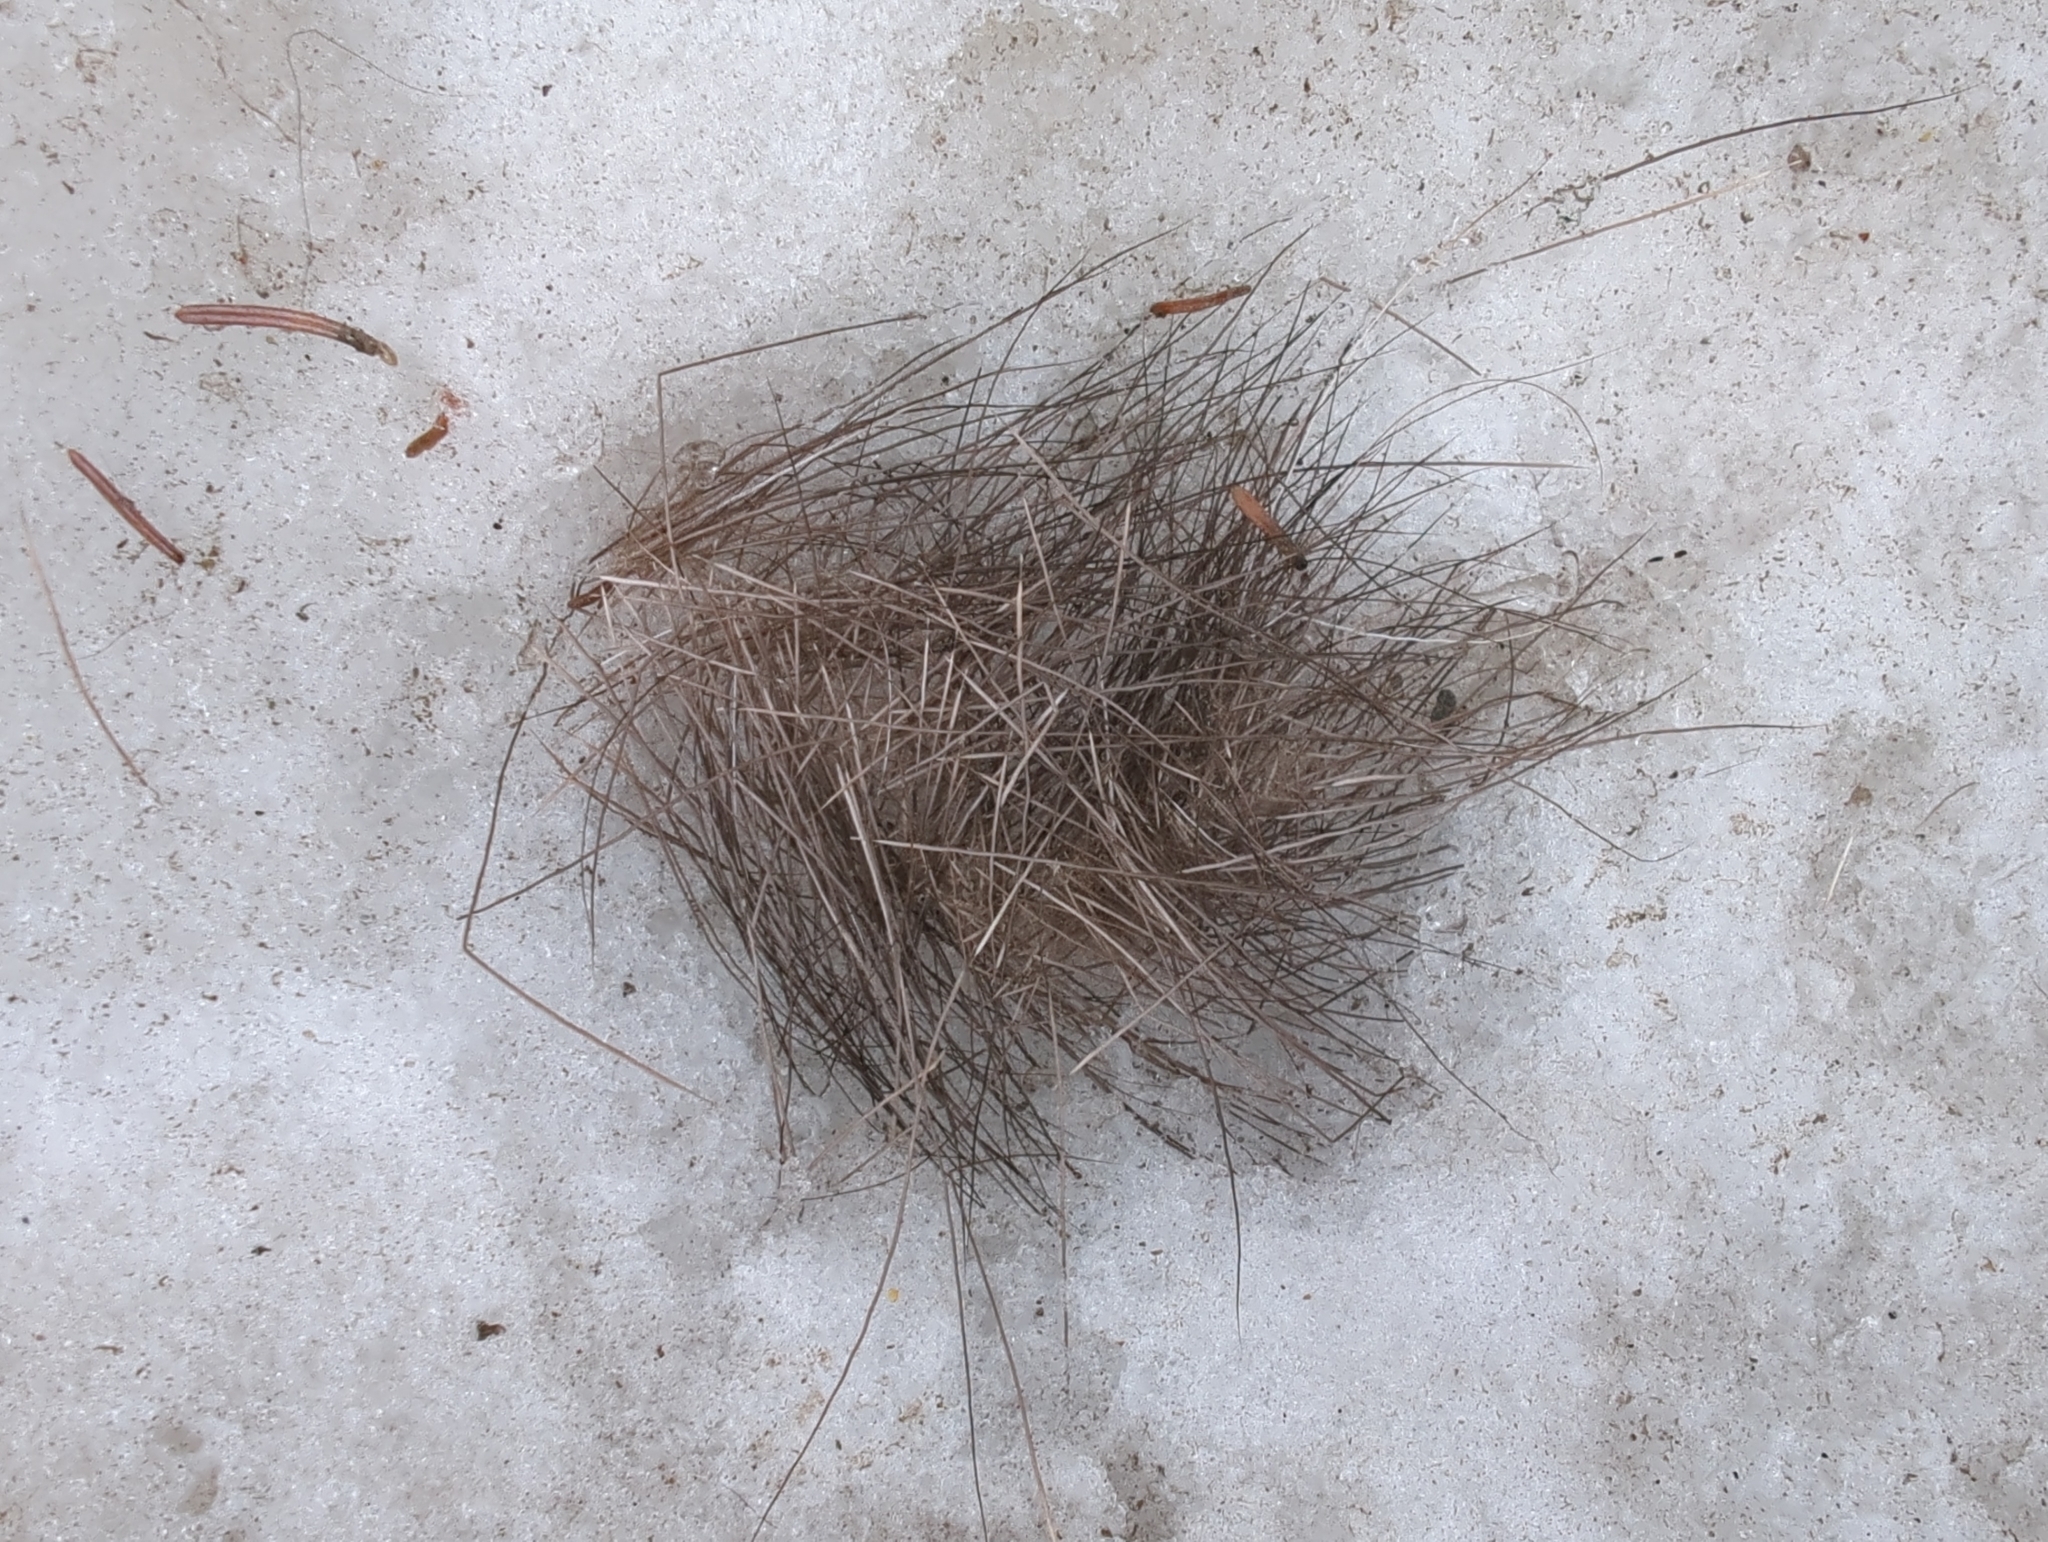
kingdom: Animalia
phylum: Chordata
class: Mammalia
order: Artiodactyla
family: Cervidae
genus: Alces
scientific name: Alces alces
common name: Moose
